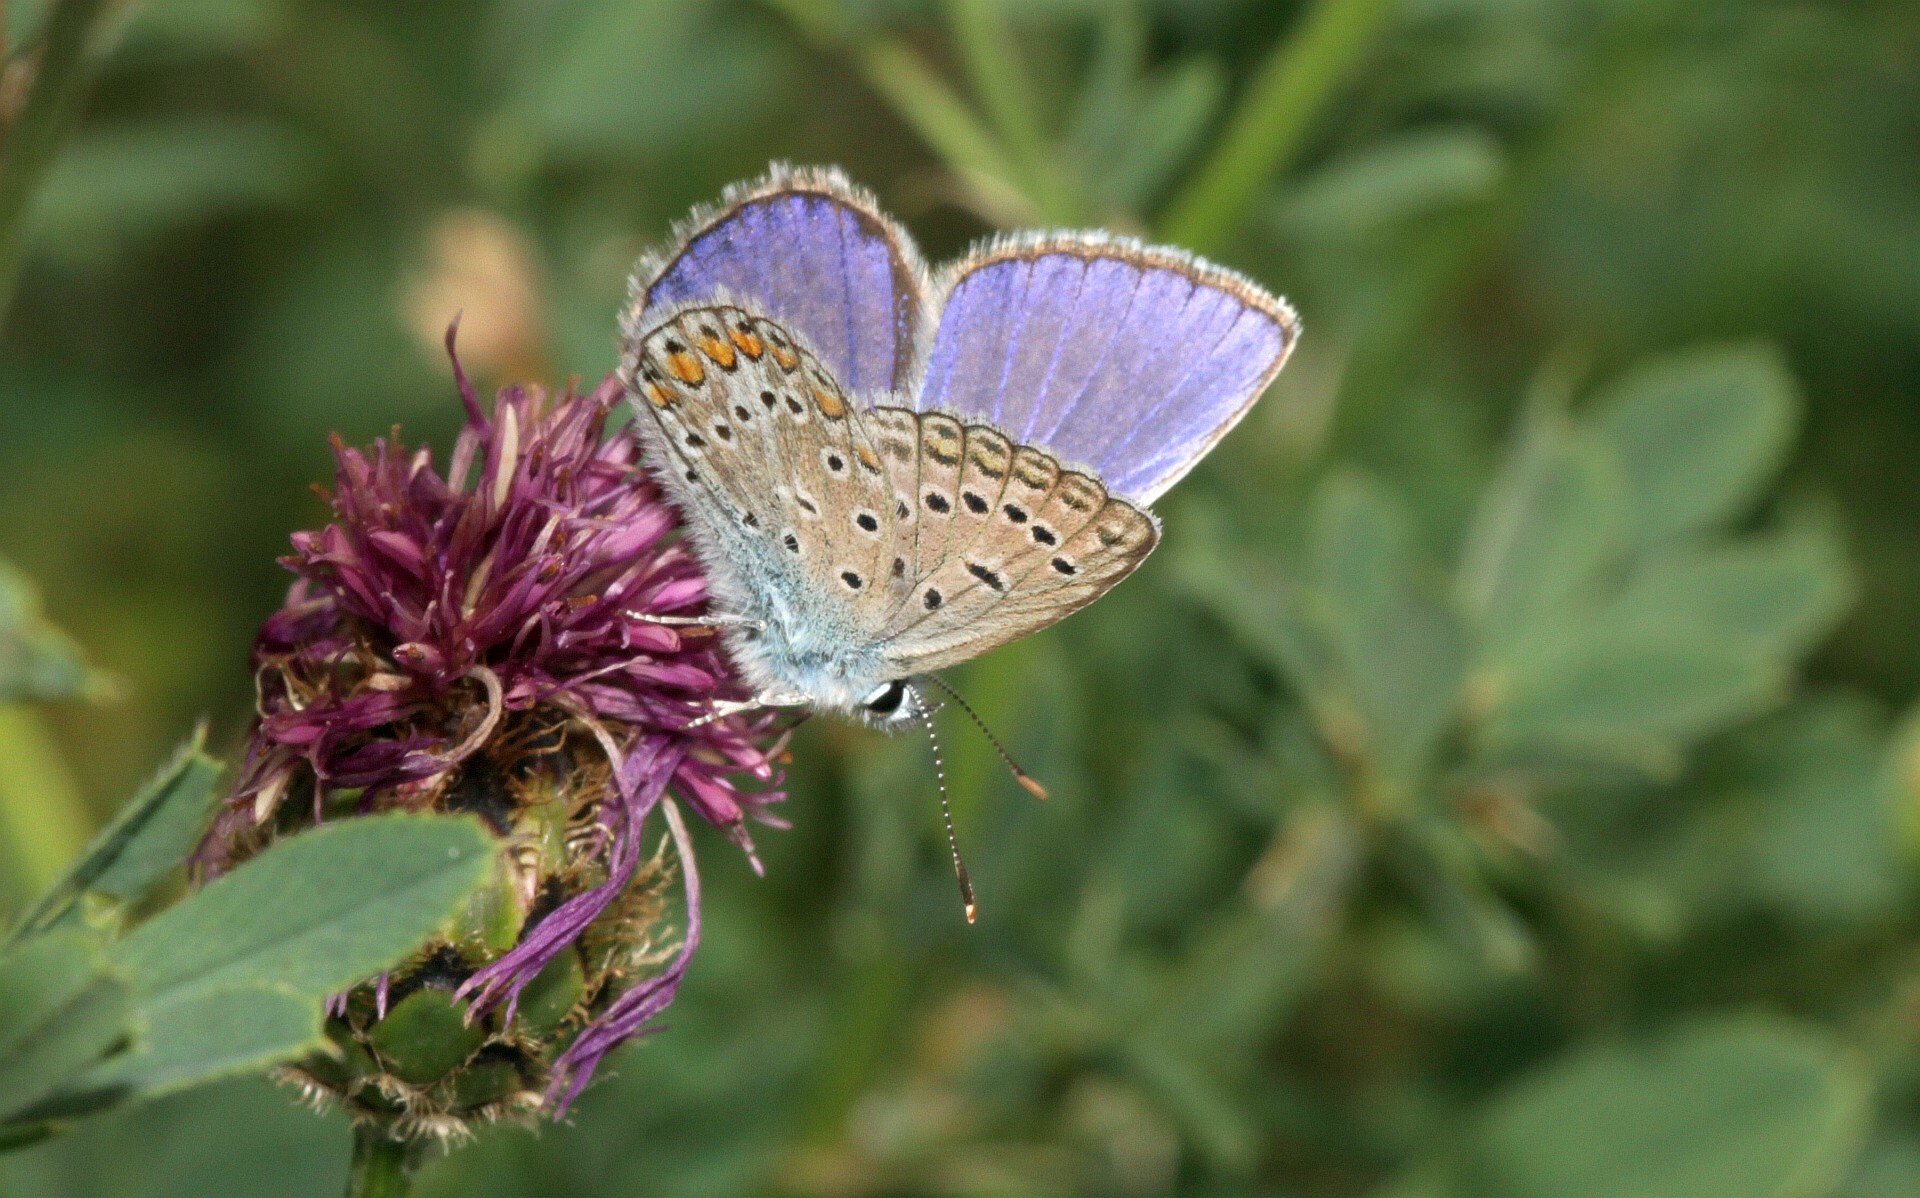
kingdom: Animalia
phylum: Arthropoda
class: Insecta
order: Lepidoptera
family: Lycaenidae
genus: Polyommatus
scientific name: Polyommatus icarus
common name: Common blue
